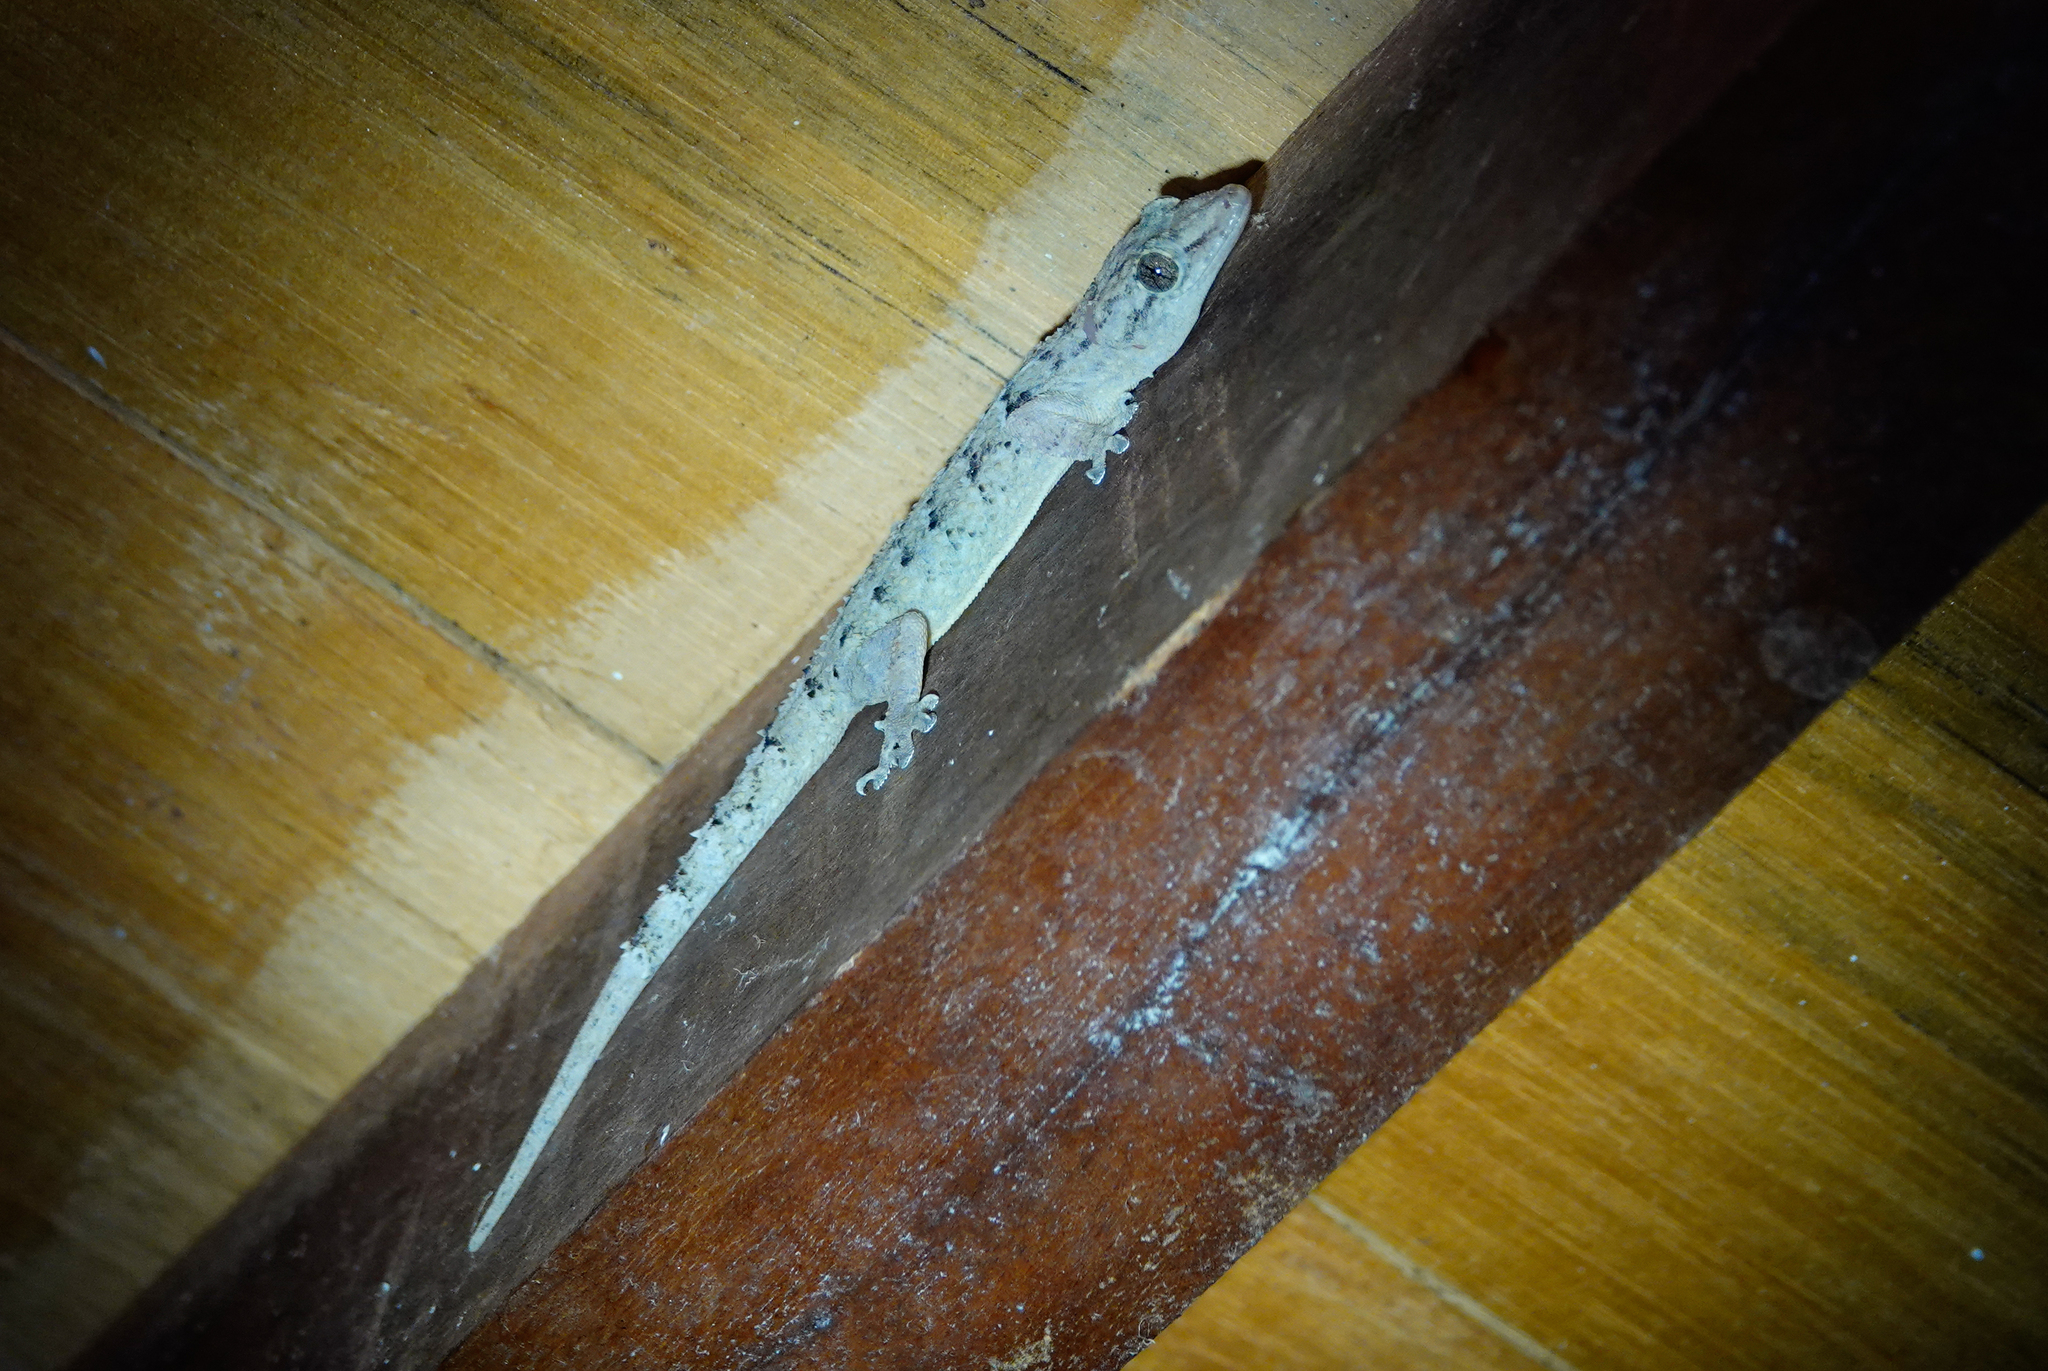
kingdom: Animalia
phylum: Chordata
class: Squamata
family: Gekkonidae
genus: Hemidactylus
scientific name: Hemidactylus palaichthus
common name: Antilles leaf-toed gecko
